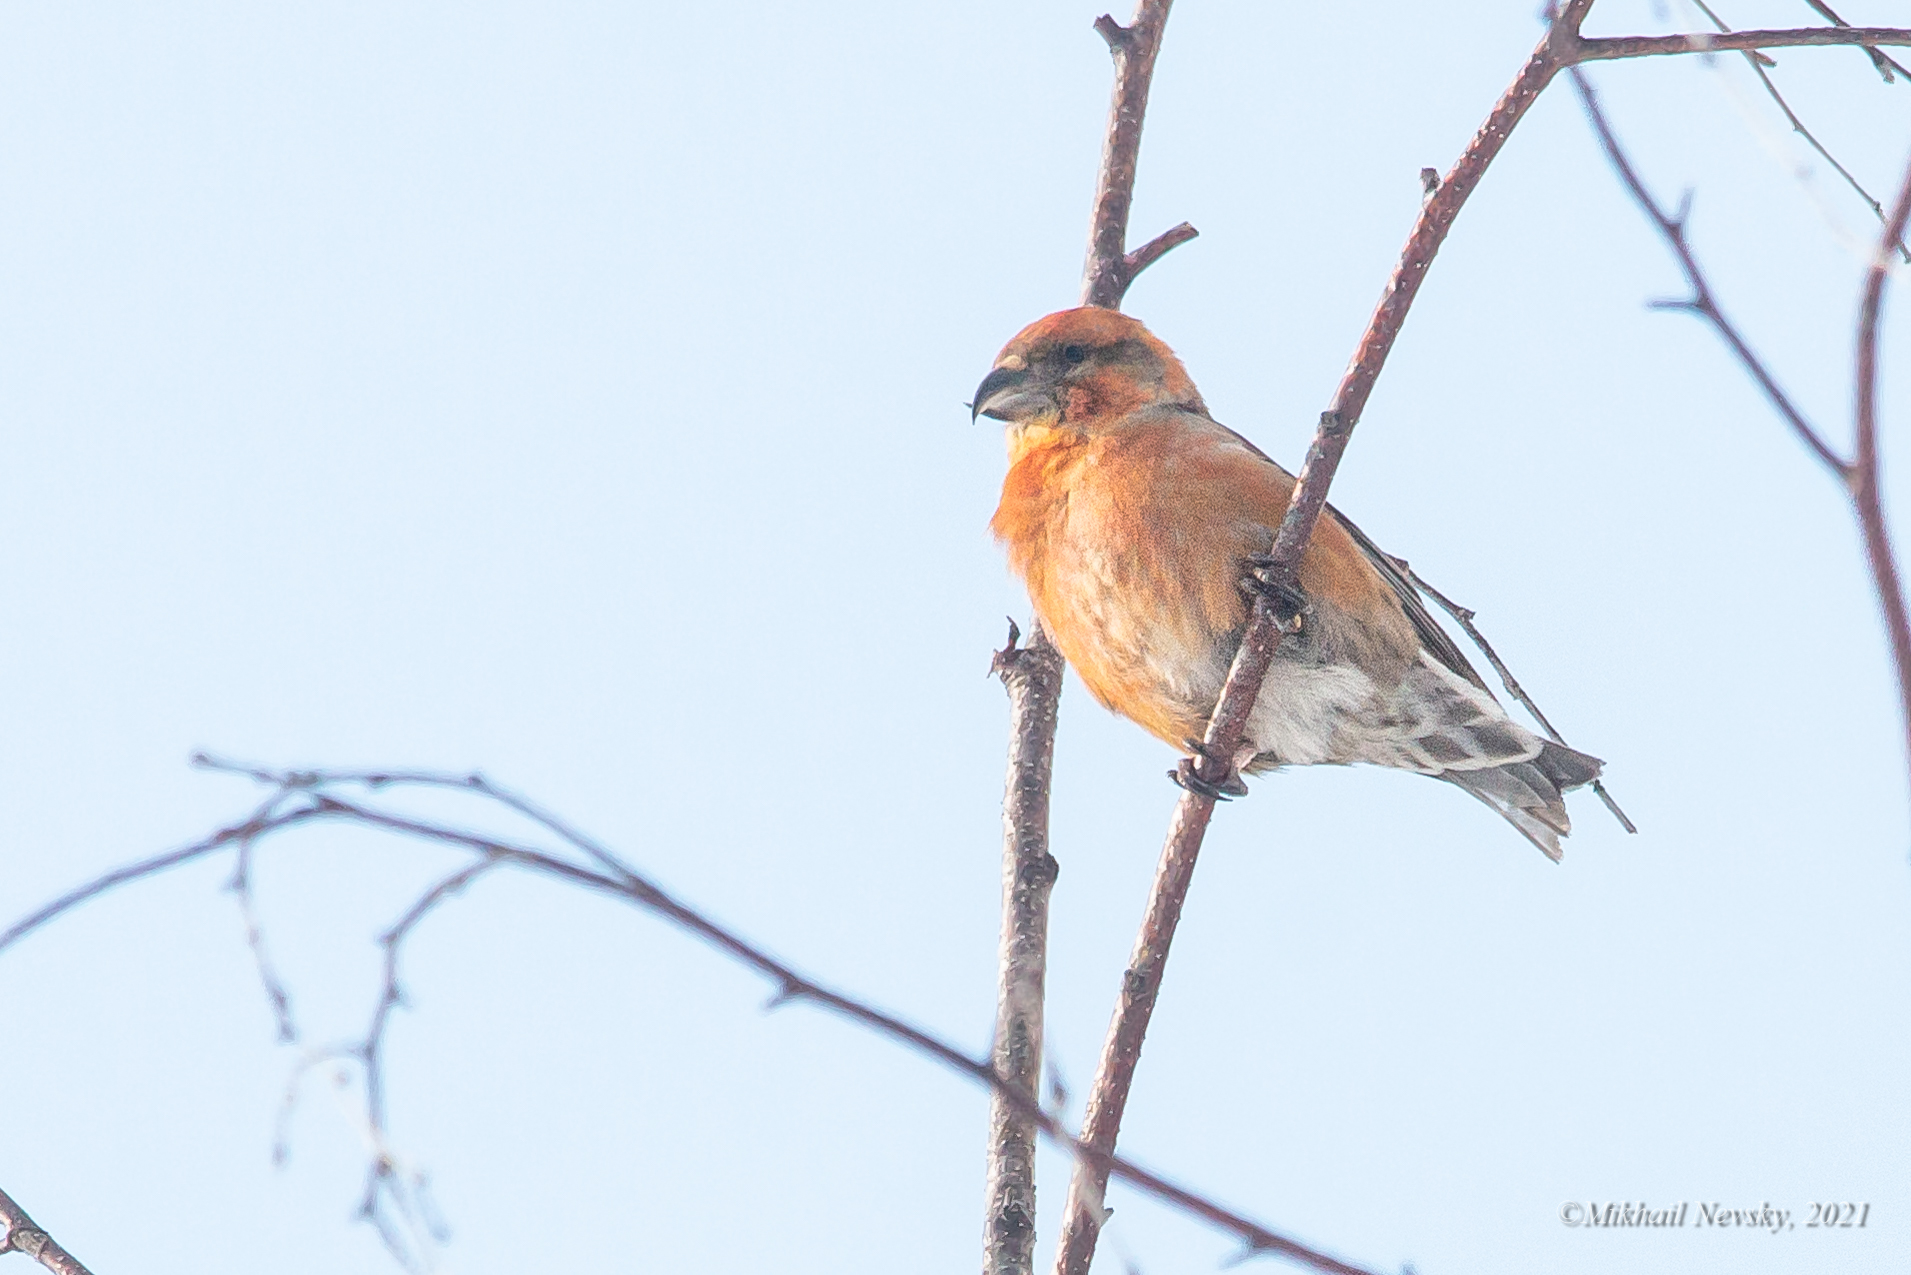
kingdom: Animalia
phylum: Chordata
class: Aves
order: Passeriformes
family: Fringillidae
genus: Loxia
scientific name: Loxia curvirostra
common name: Red crossbill
